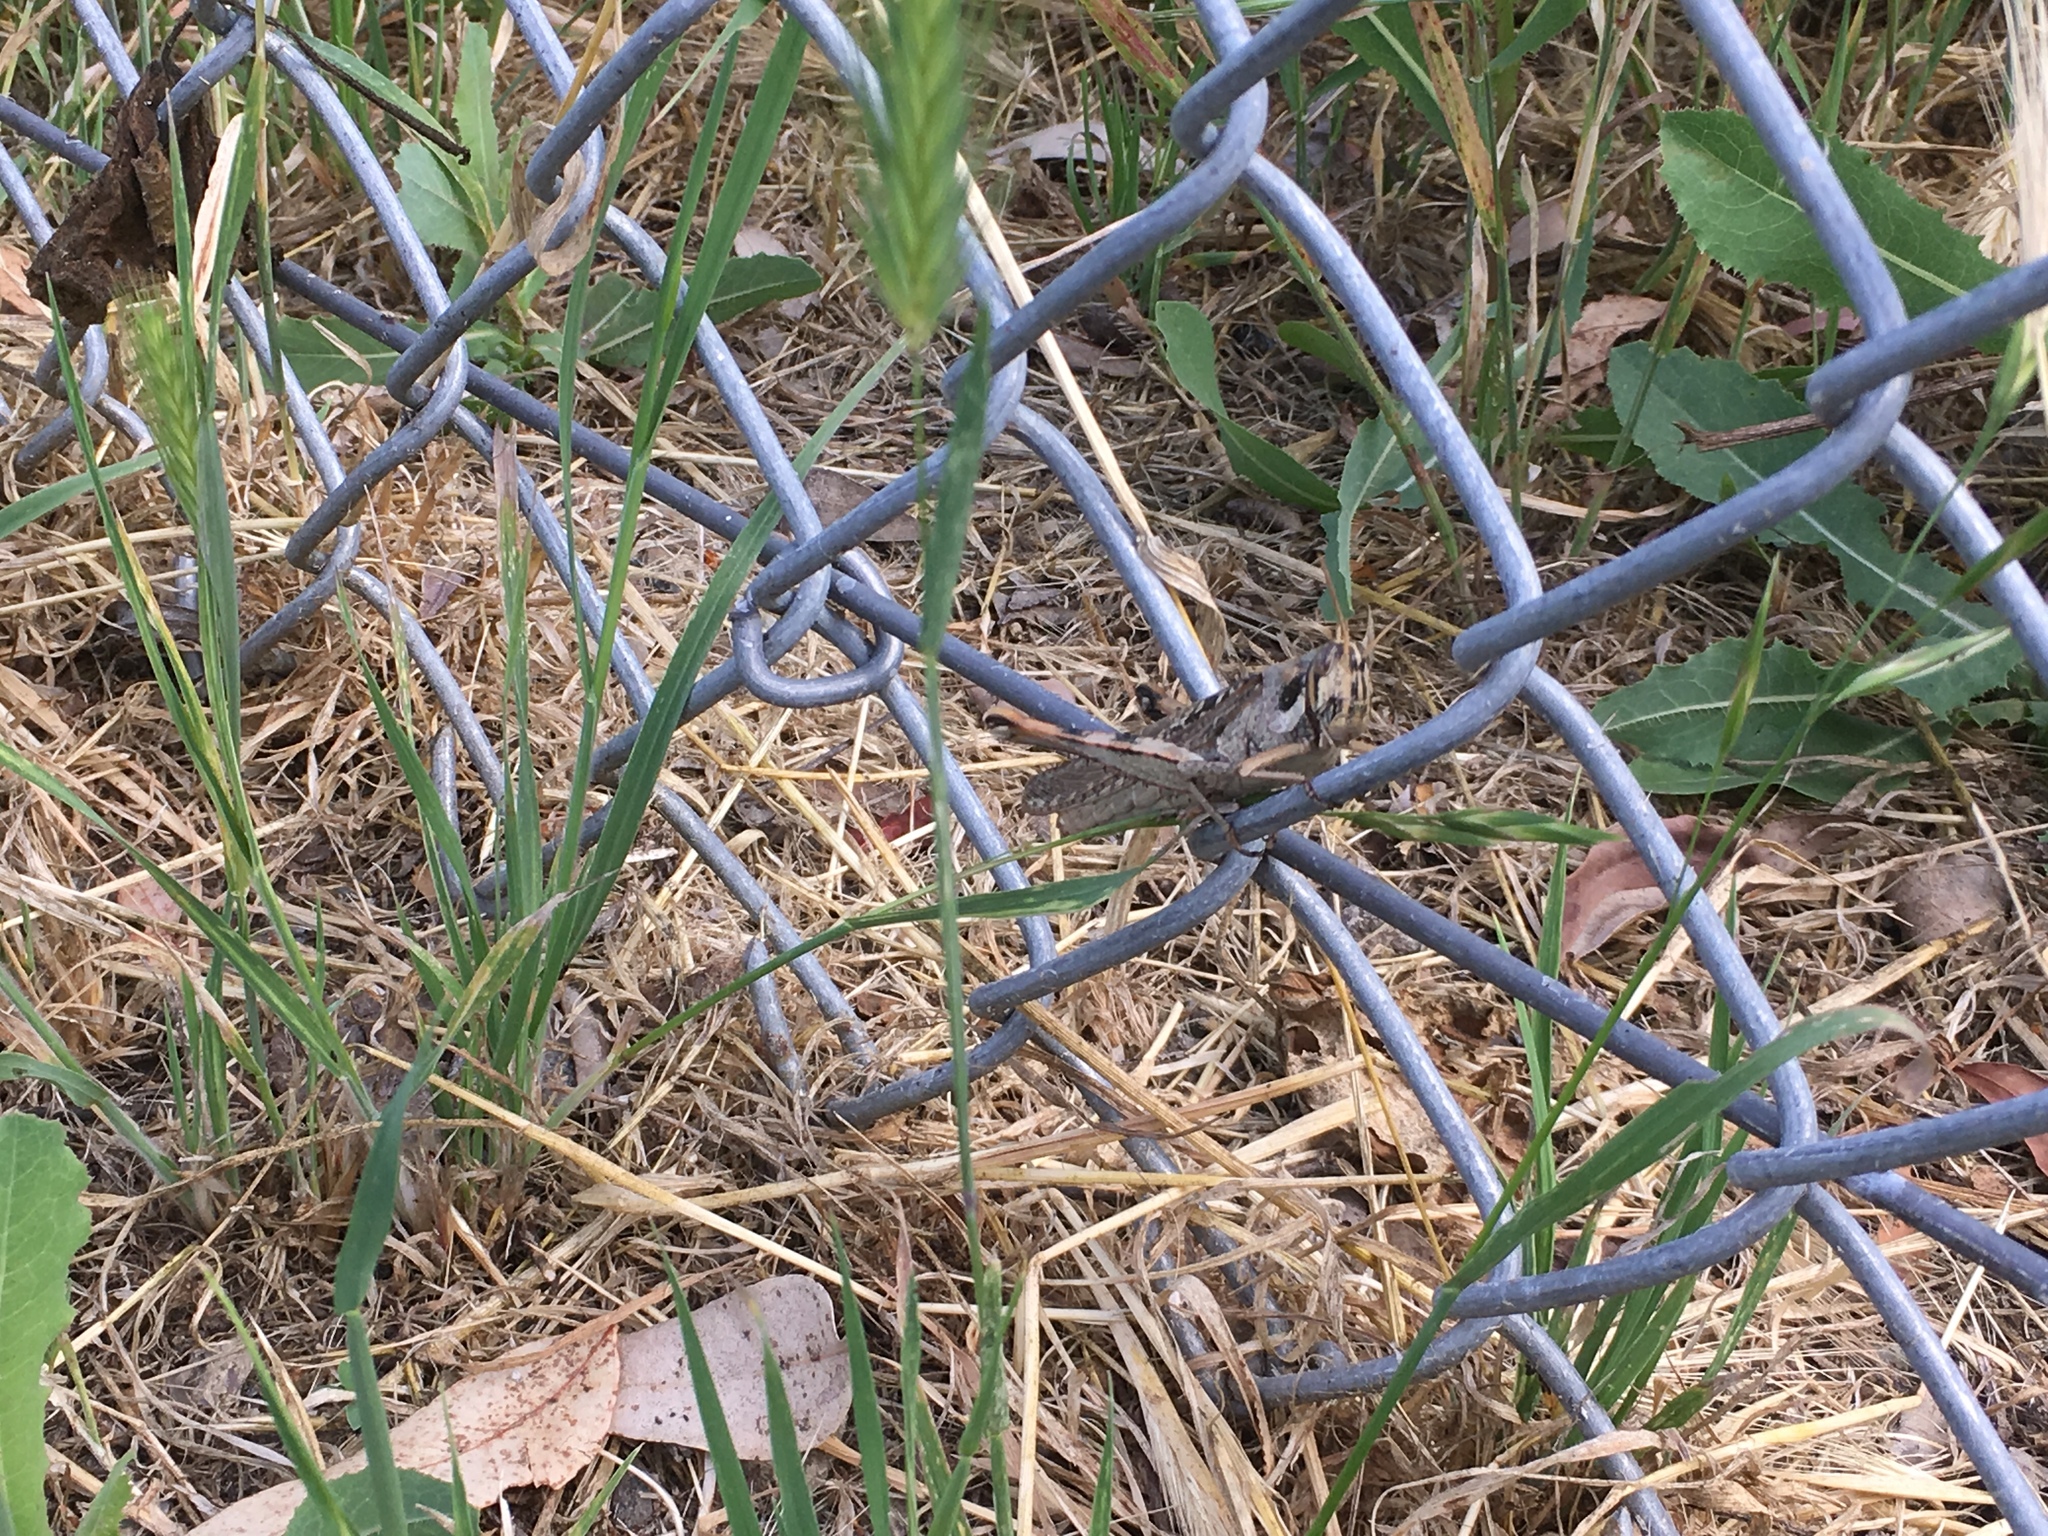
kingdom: Animalia
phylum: Arthropoda
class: Insecta
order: Orthoptera
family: Acrididae
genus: Schistocerca
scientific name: Schistocerca nitens
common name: Vagrant grasshopper
